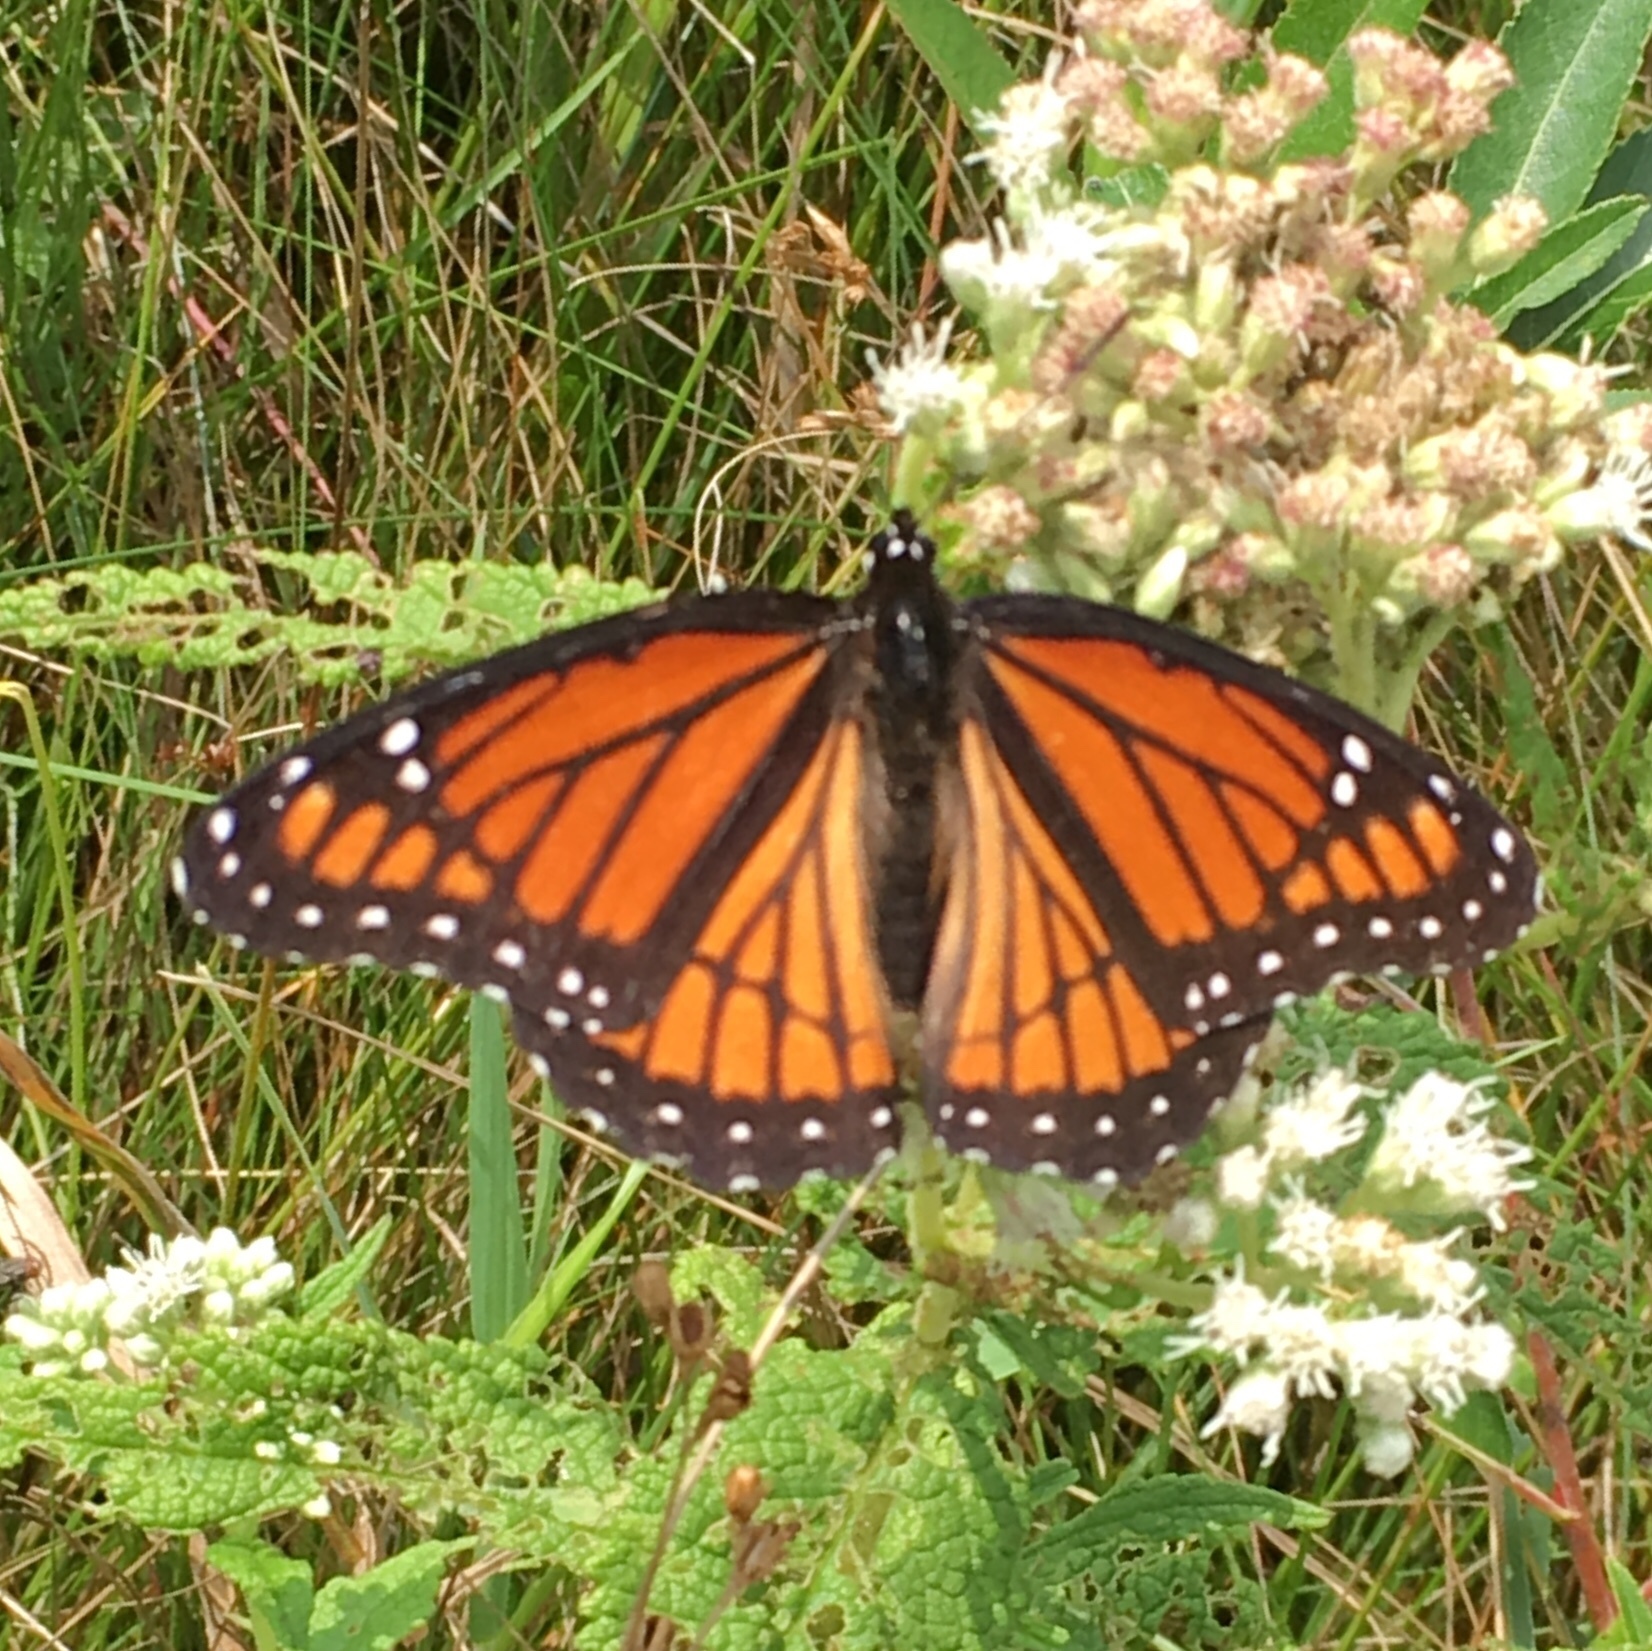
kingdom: Animalia
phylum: Arthropoda
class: Insecta
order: Lepidoptera
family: Nymphalidae
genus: Limenitis
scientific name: Limenitis archippus
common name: Viceroy
